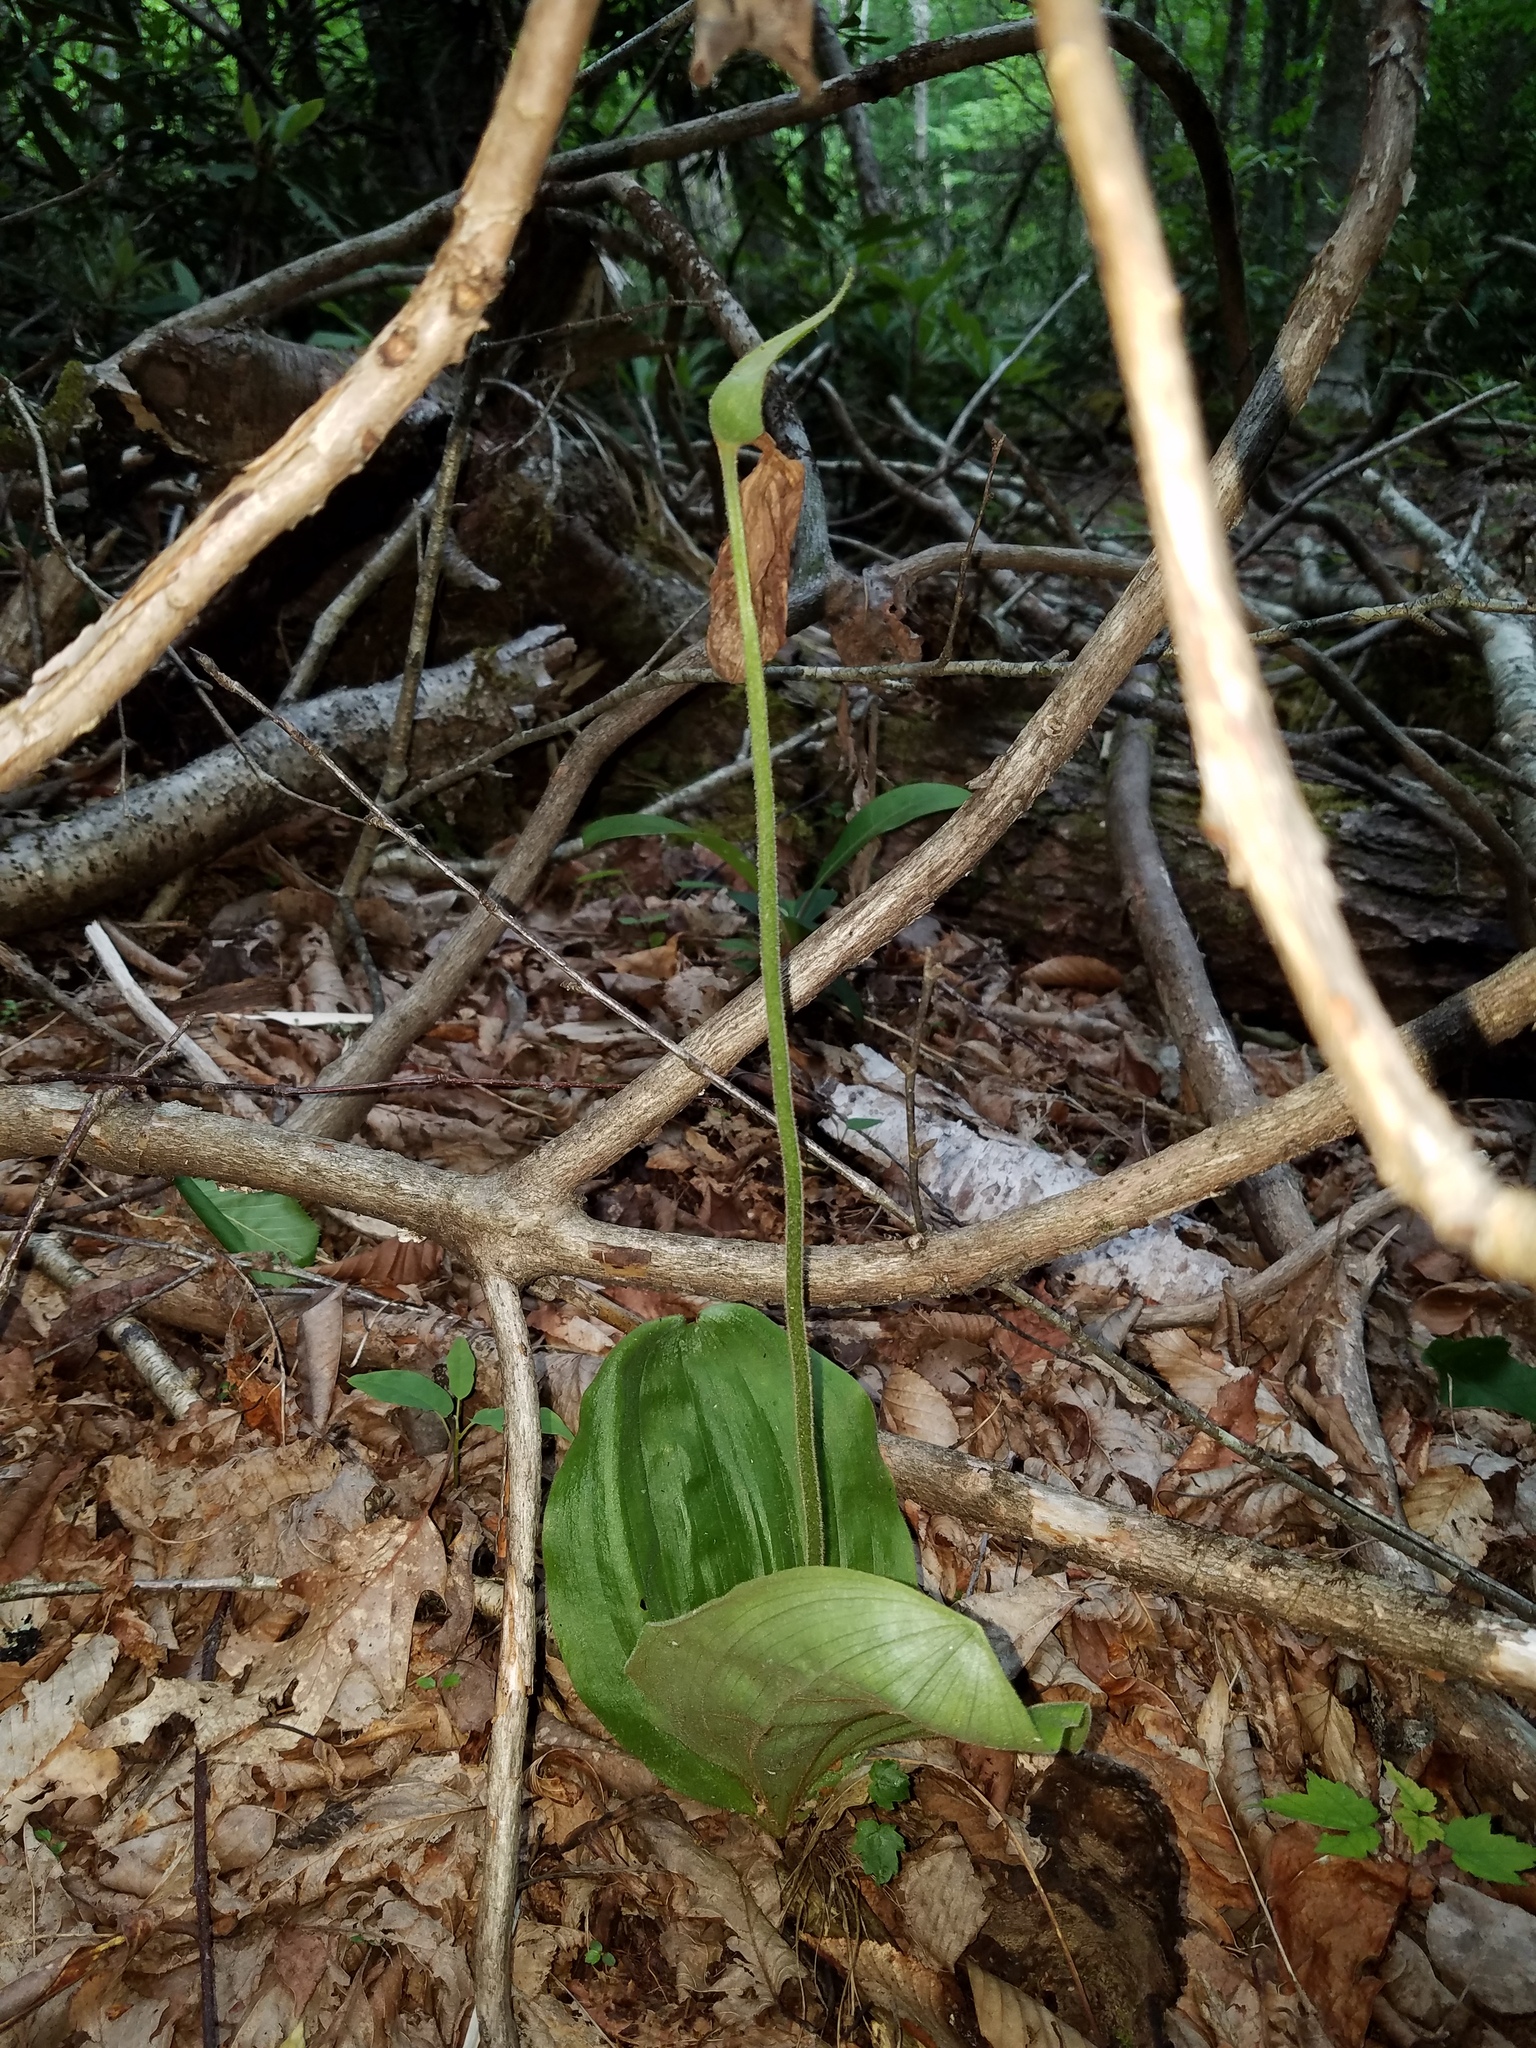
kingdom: Plantae
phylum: Tracheophyta
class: Liliopsida
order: Asparagales
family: Orchidaceae
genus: Cypripedium
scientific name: Cypripedium acaule
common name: Pink lady's-slipper
